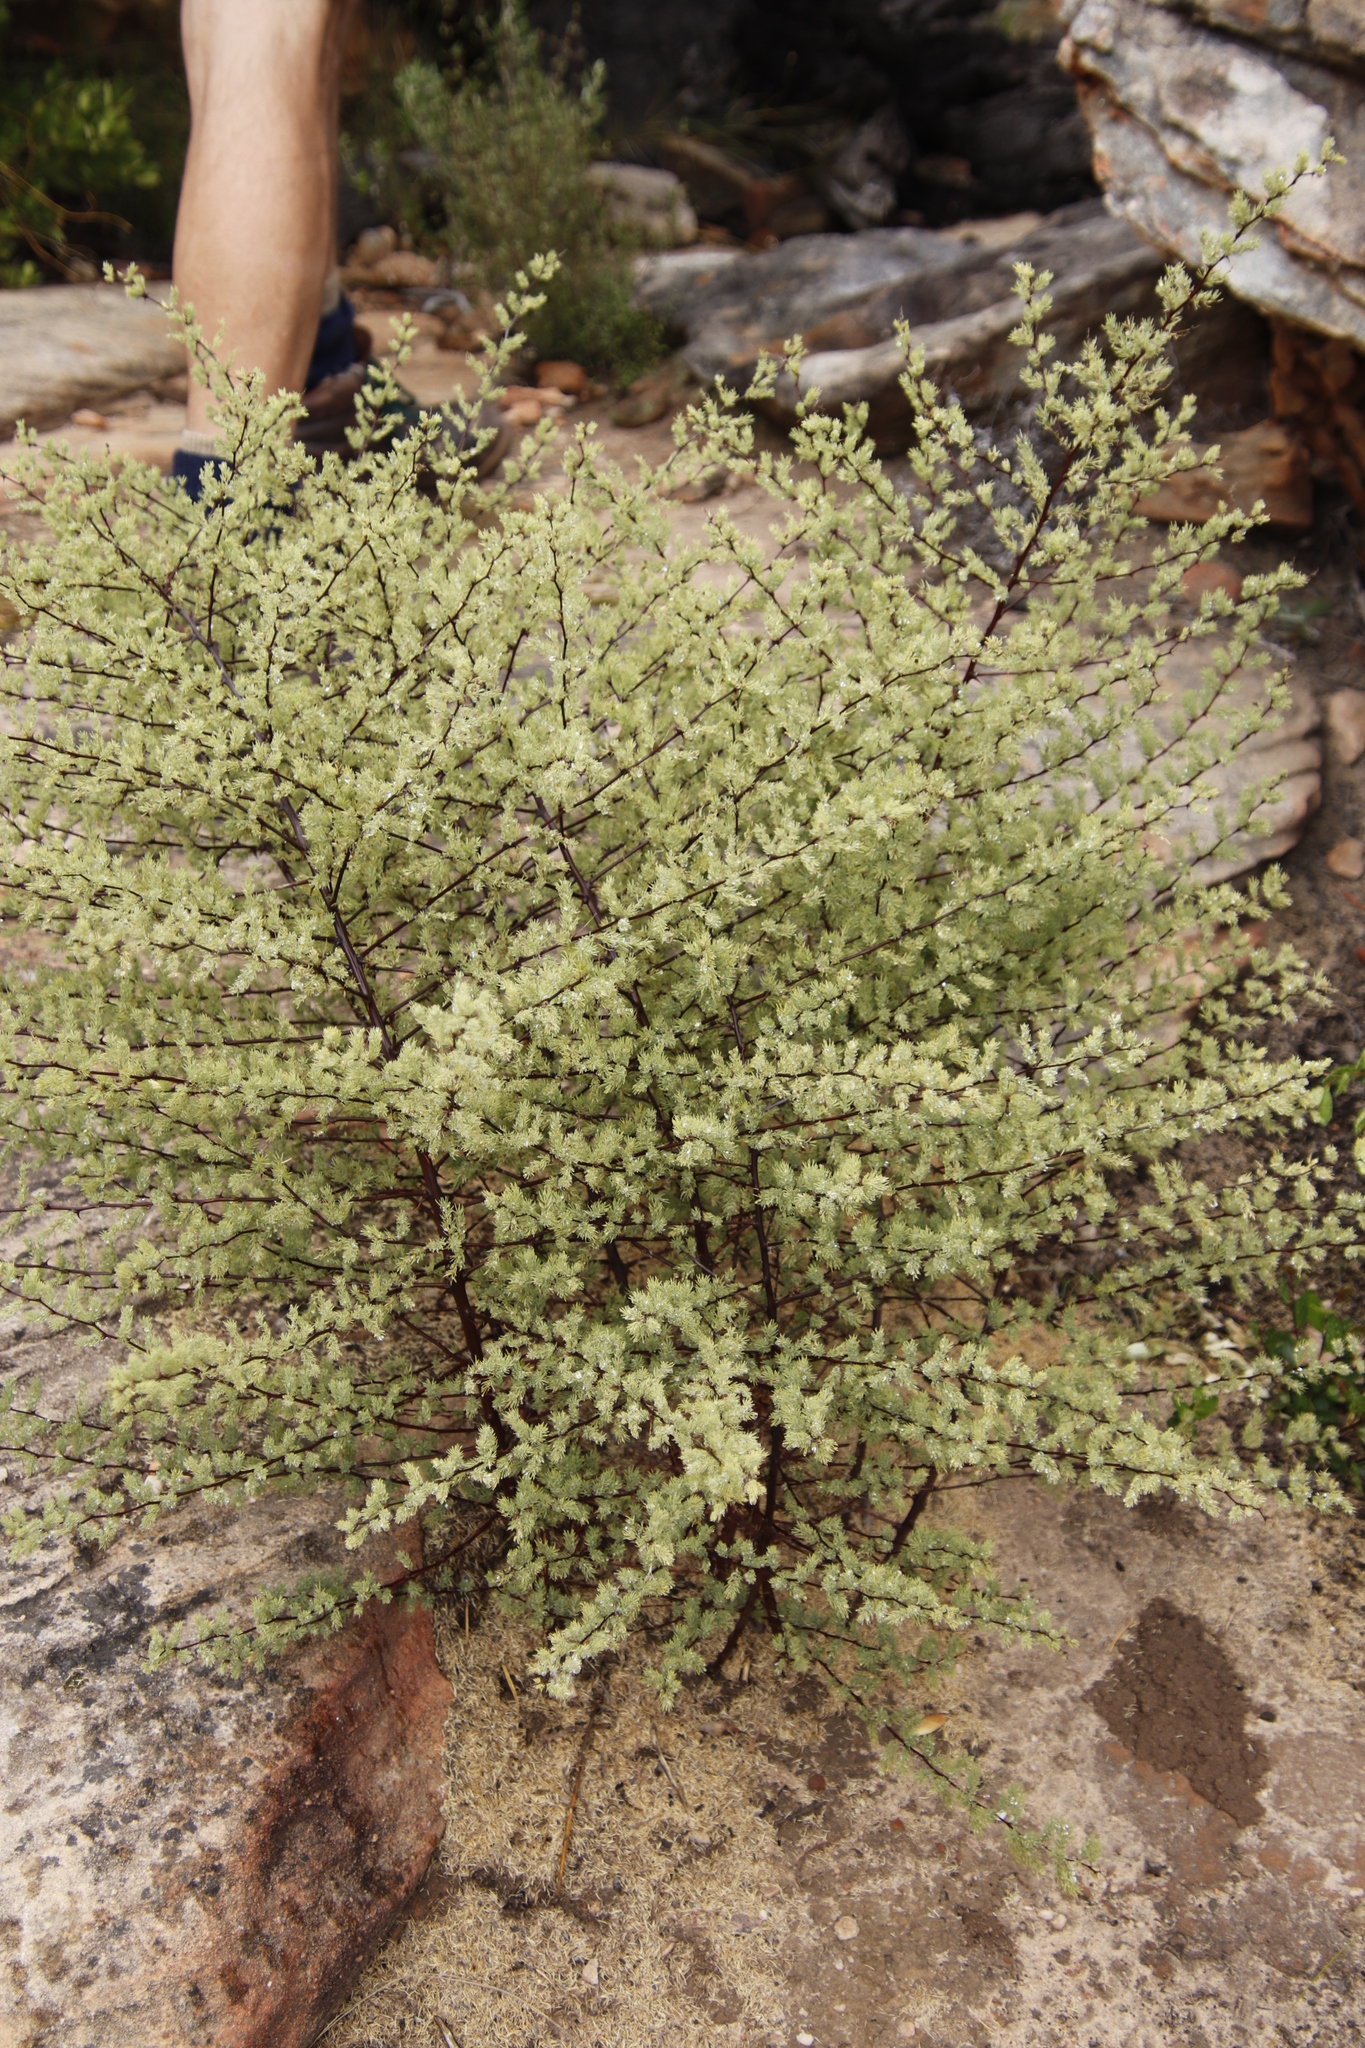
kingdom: Plantae
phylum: Tracheophyta
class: Liliopsida
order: Asparagales
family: Asparagaceae
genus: Asparagus
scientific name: Asparagus rubicundus
